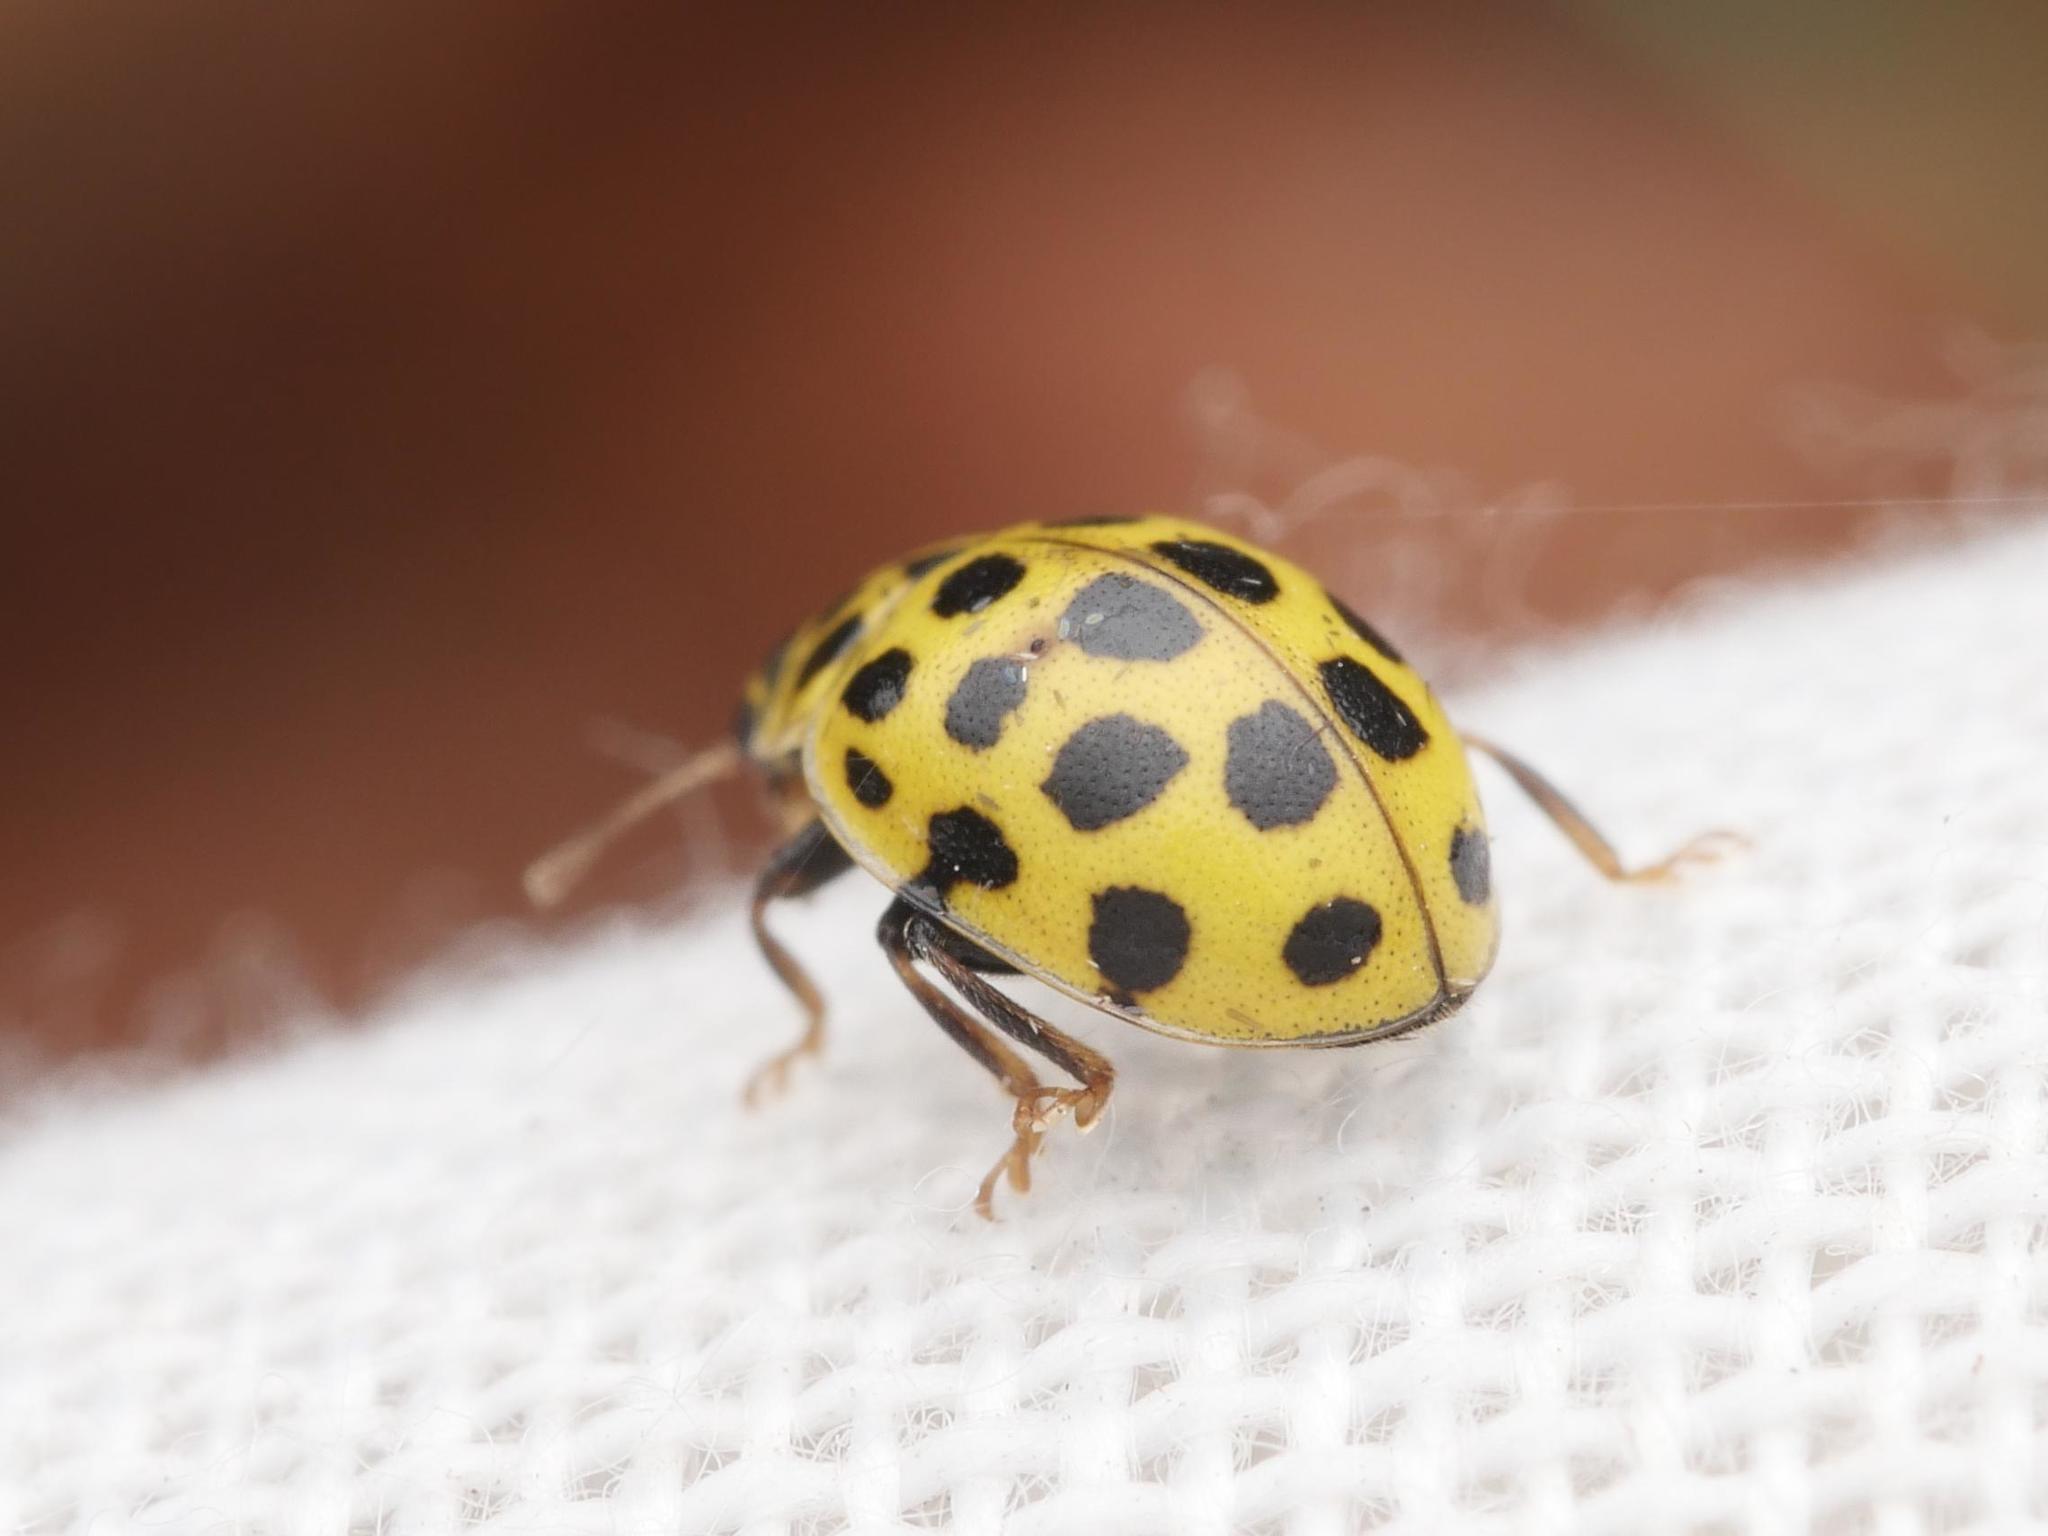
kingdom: Animalia
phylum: Arthropoda
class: Insecta
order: Coleoptera
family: Coccinellidae
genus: Psyllobora
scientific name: Psyllobora vigintiduopunctata
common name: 22-spot ladybird
